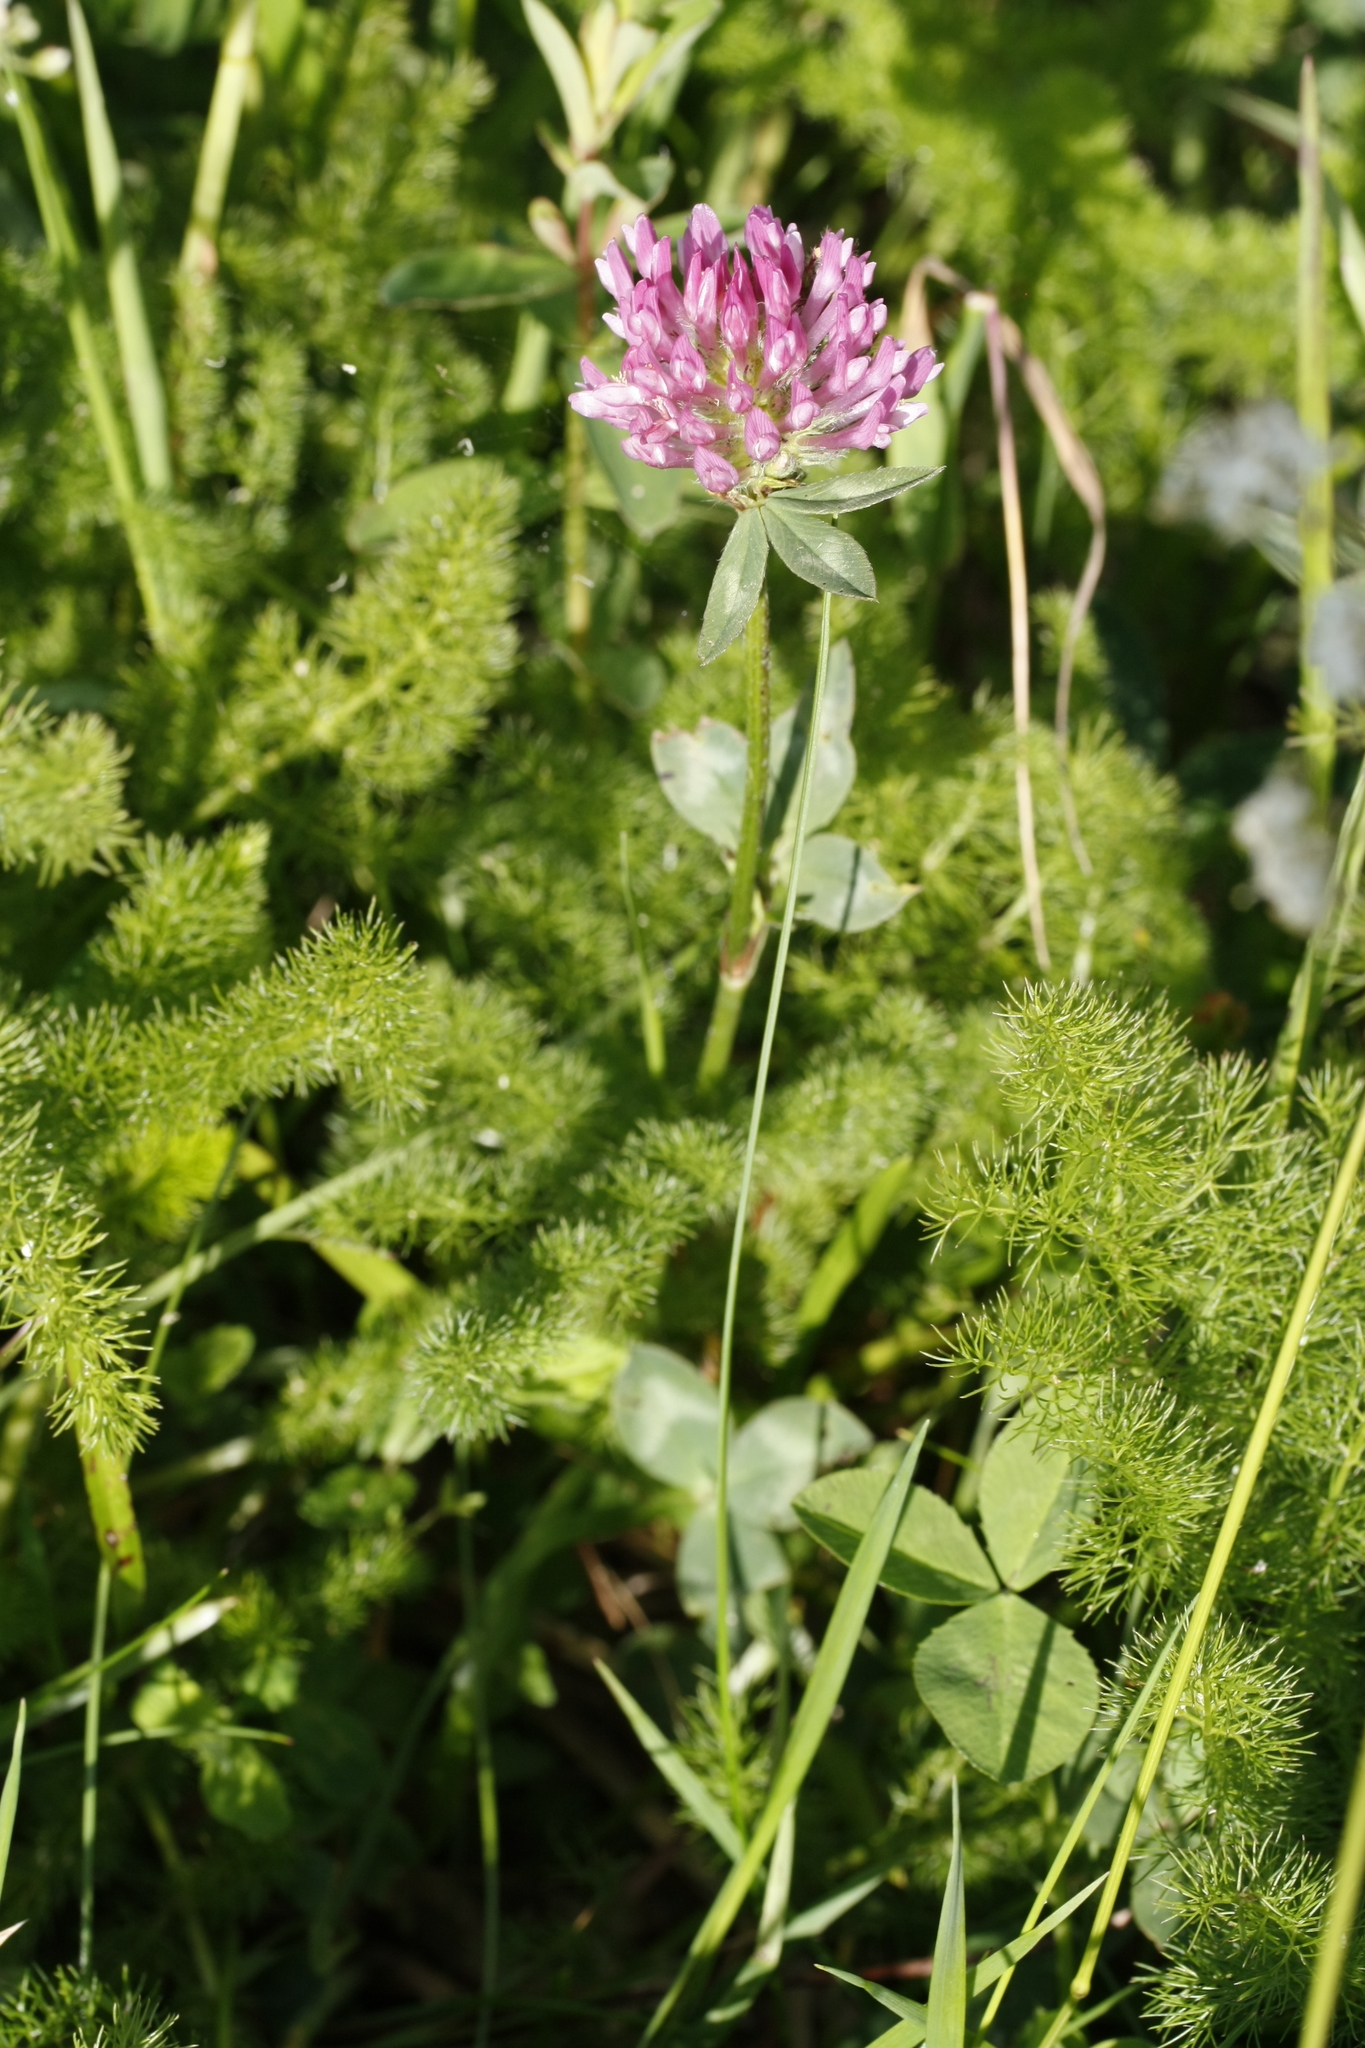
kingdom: Plantae
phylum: Tracheophyta
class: Magnoliopsida
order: Fabales
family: Fabaceae
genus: Trifolium
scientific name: Trifolium pratense
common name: Red clover
